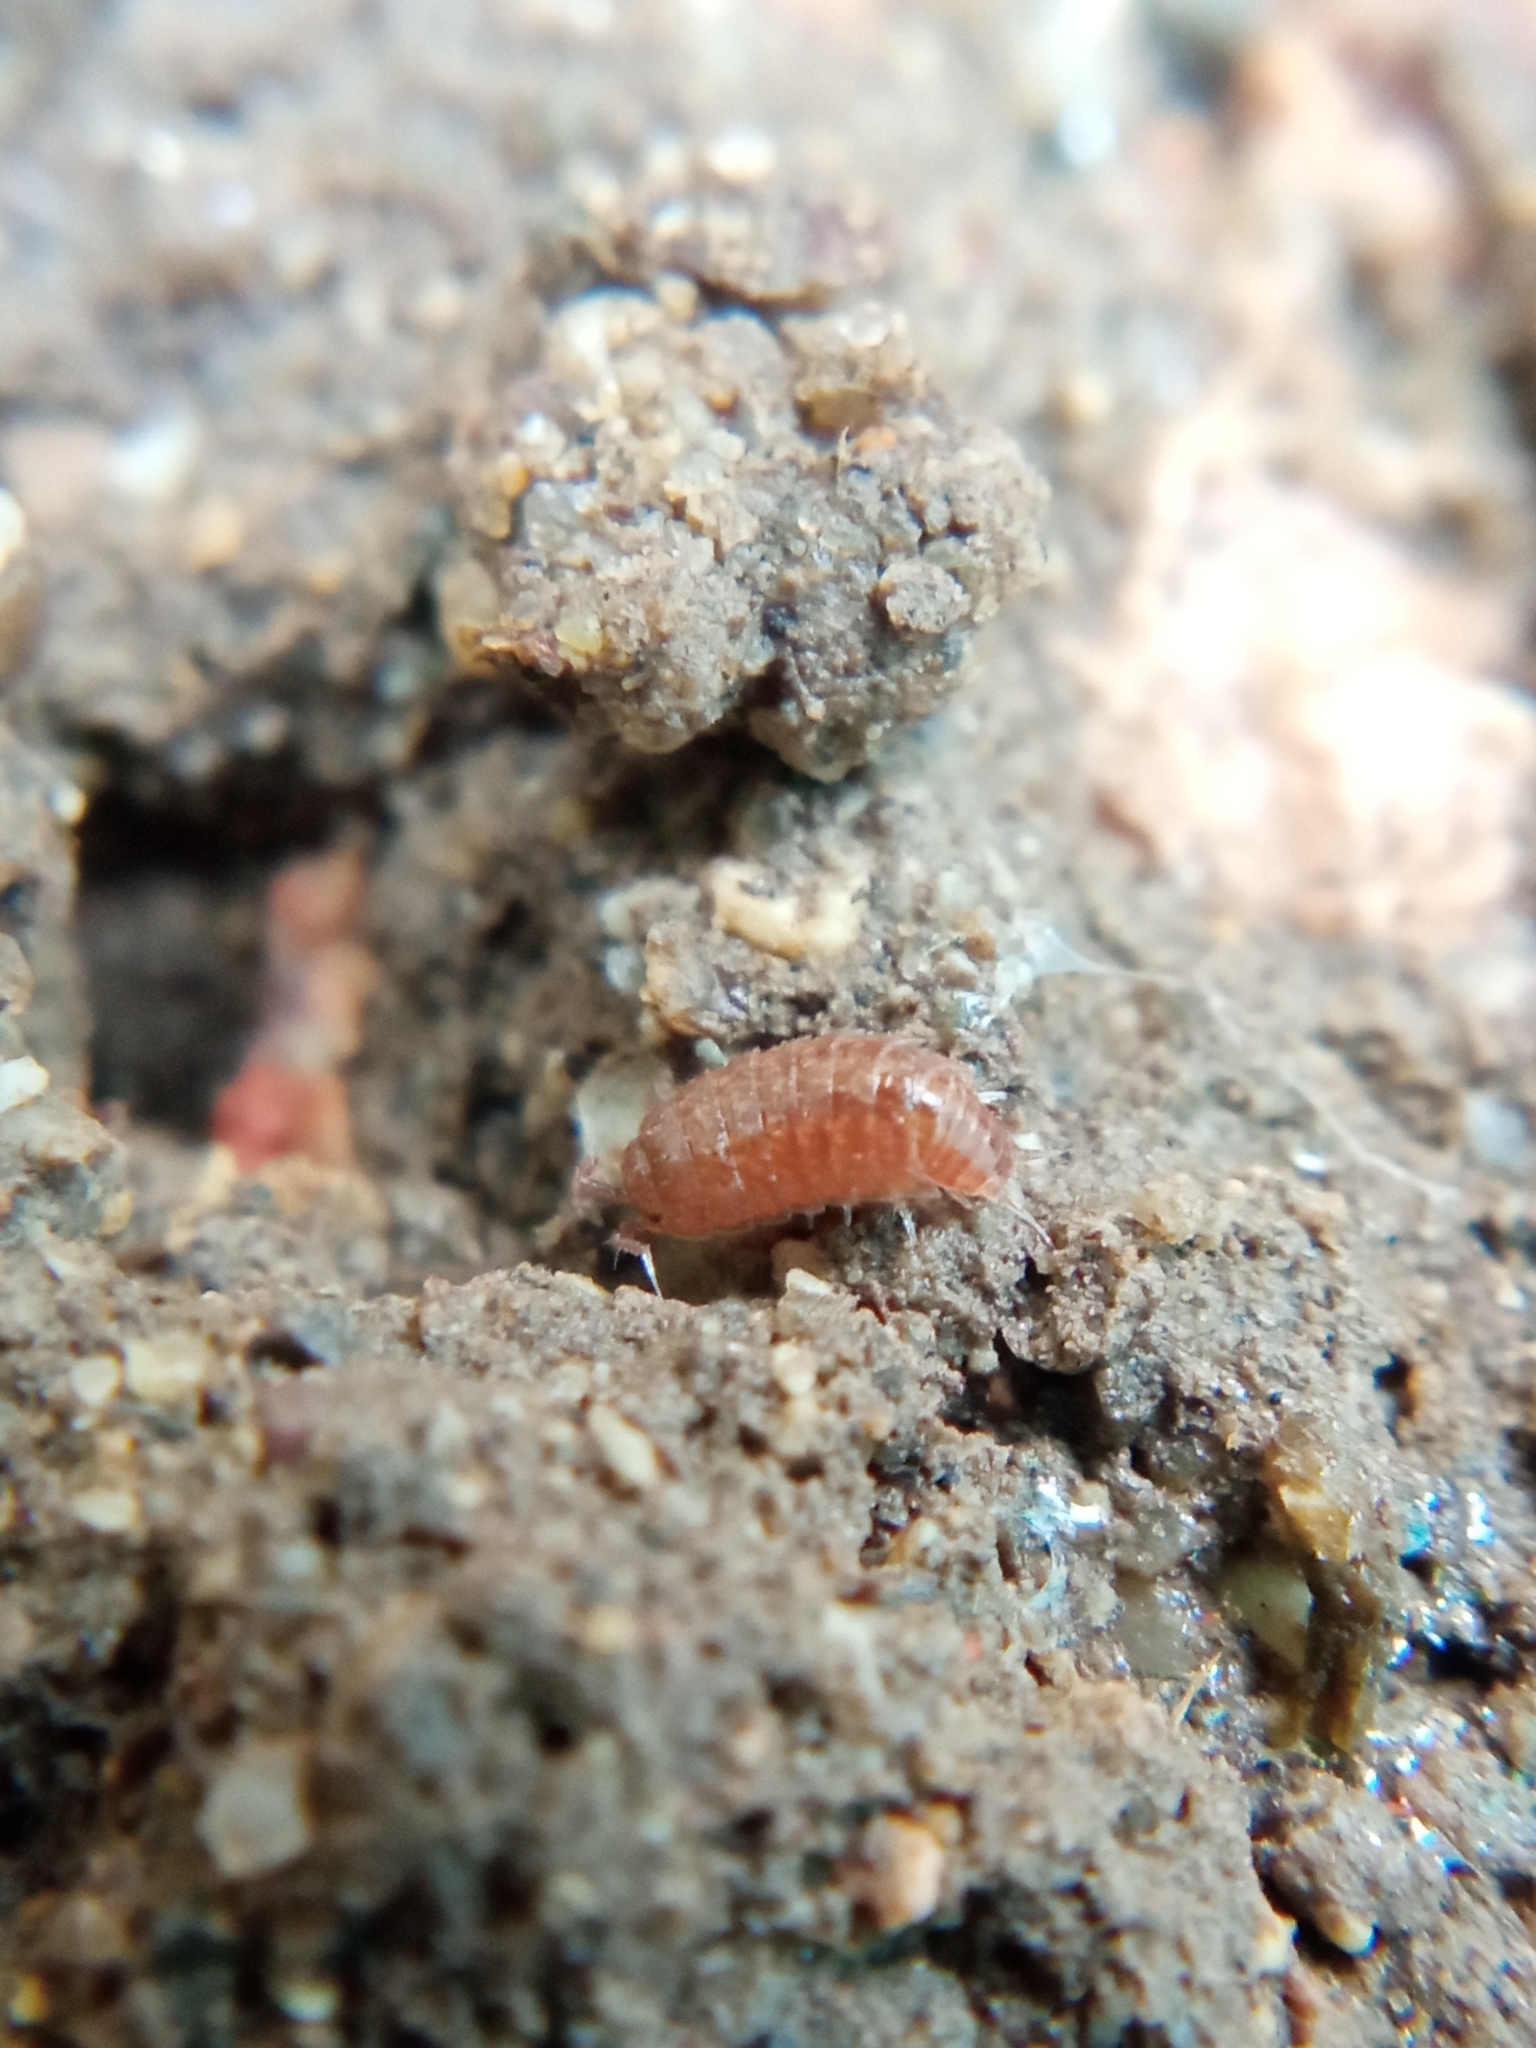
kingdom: Animalia
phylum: Arthropoda
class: Malacostraca
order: Isopoda
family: Trichoniscidae
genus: Trichoniscus
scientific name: Trichoniscus
